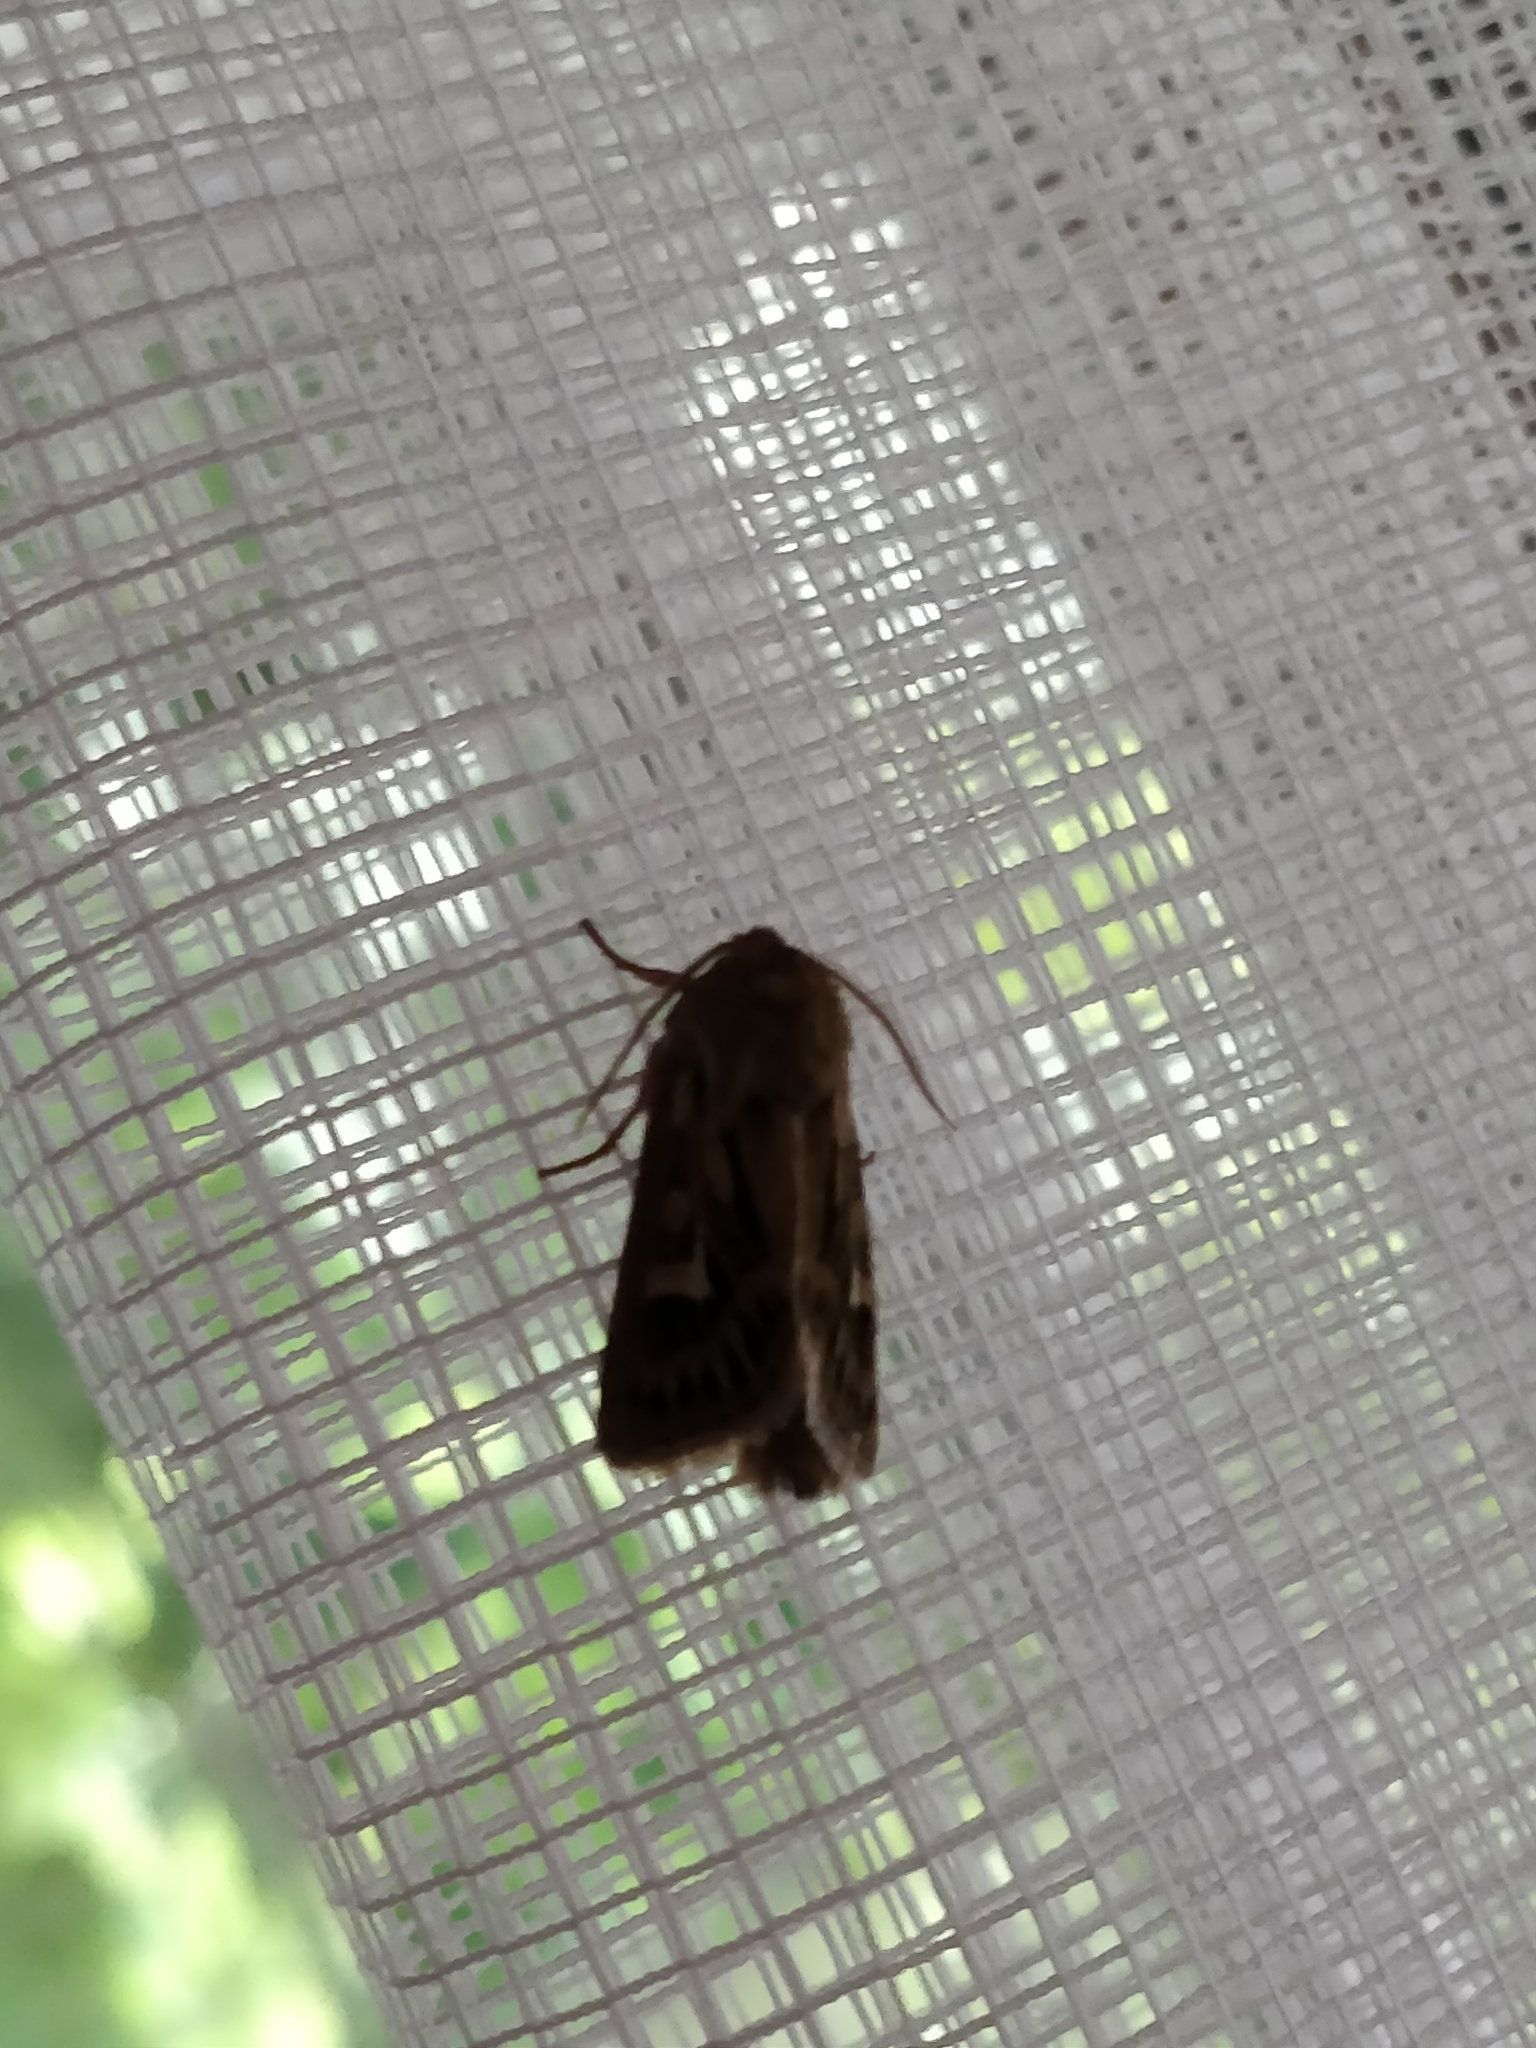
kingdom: Animalia
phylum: Arthropoda
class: Insecta
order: Lepidoptera
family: Noctuidae
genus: Cerapteryx
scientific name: Cerapteryx graminis
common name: Antler moth
